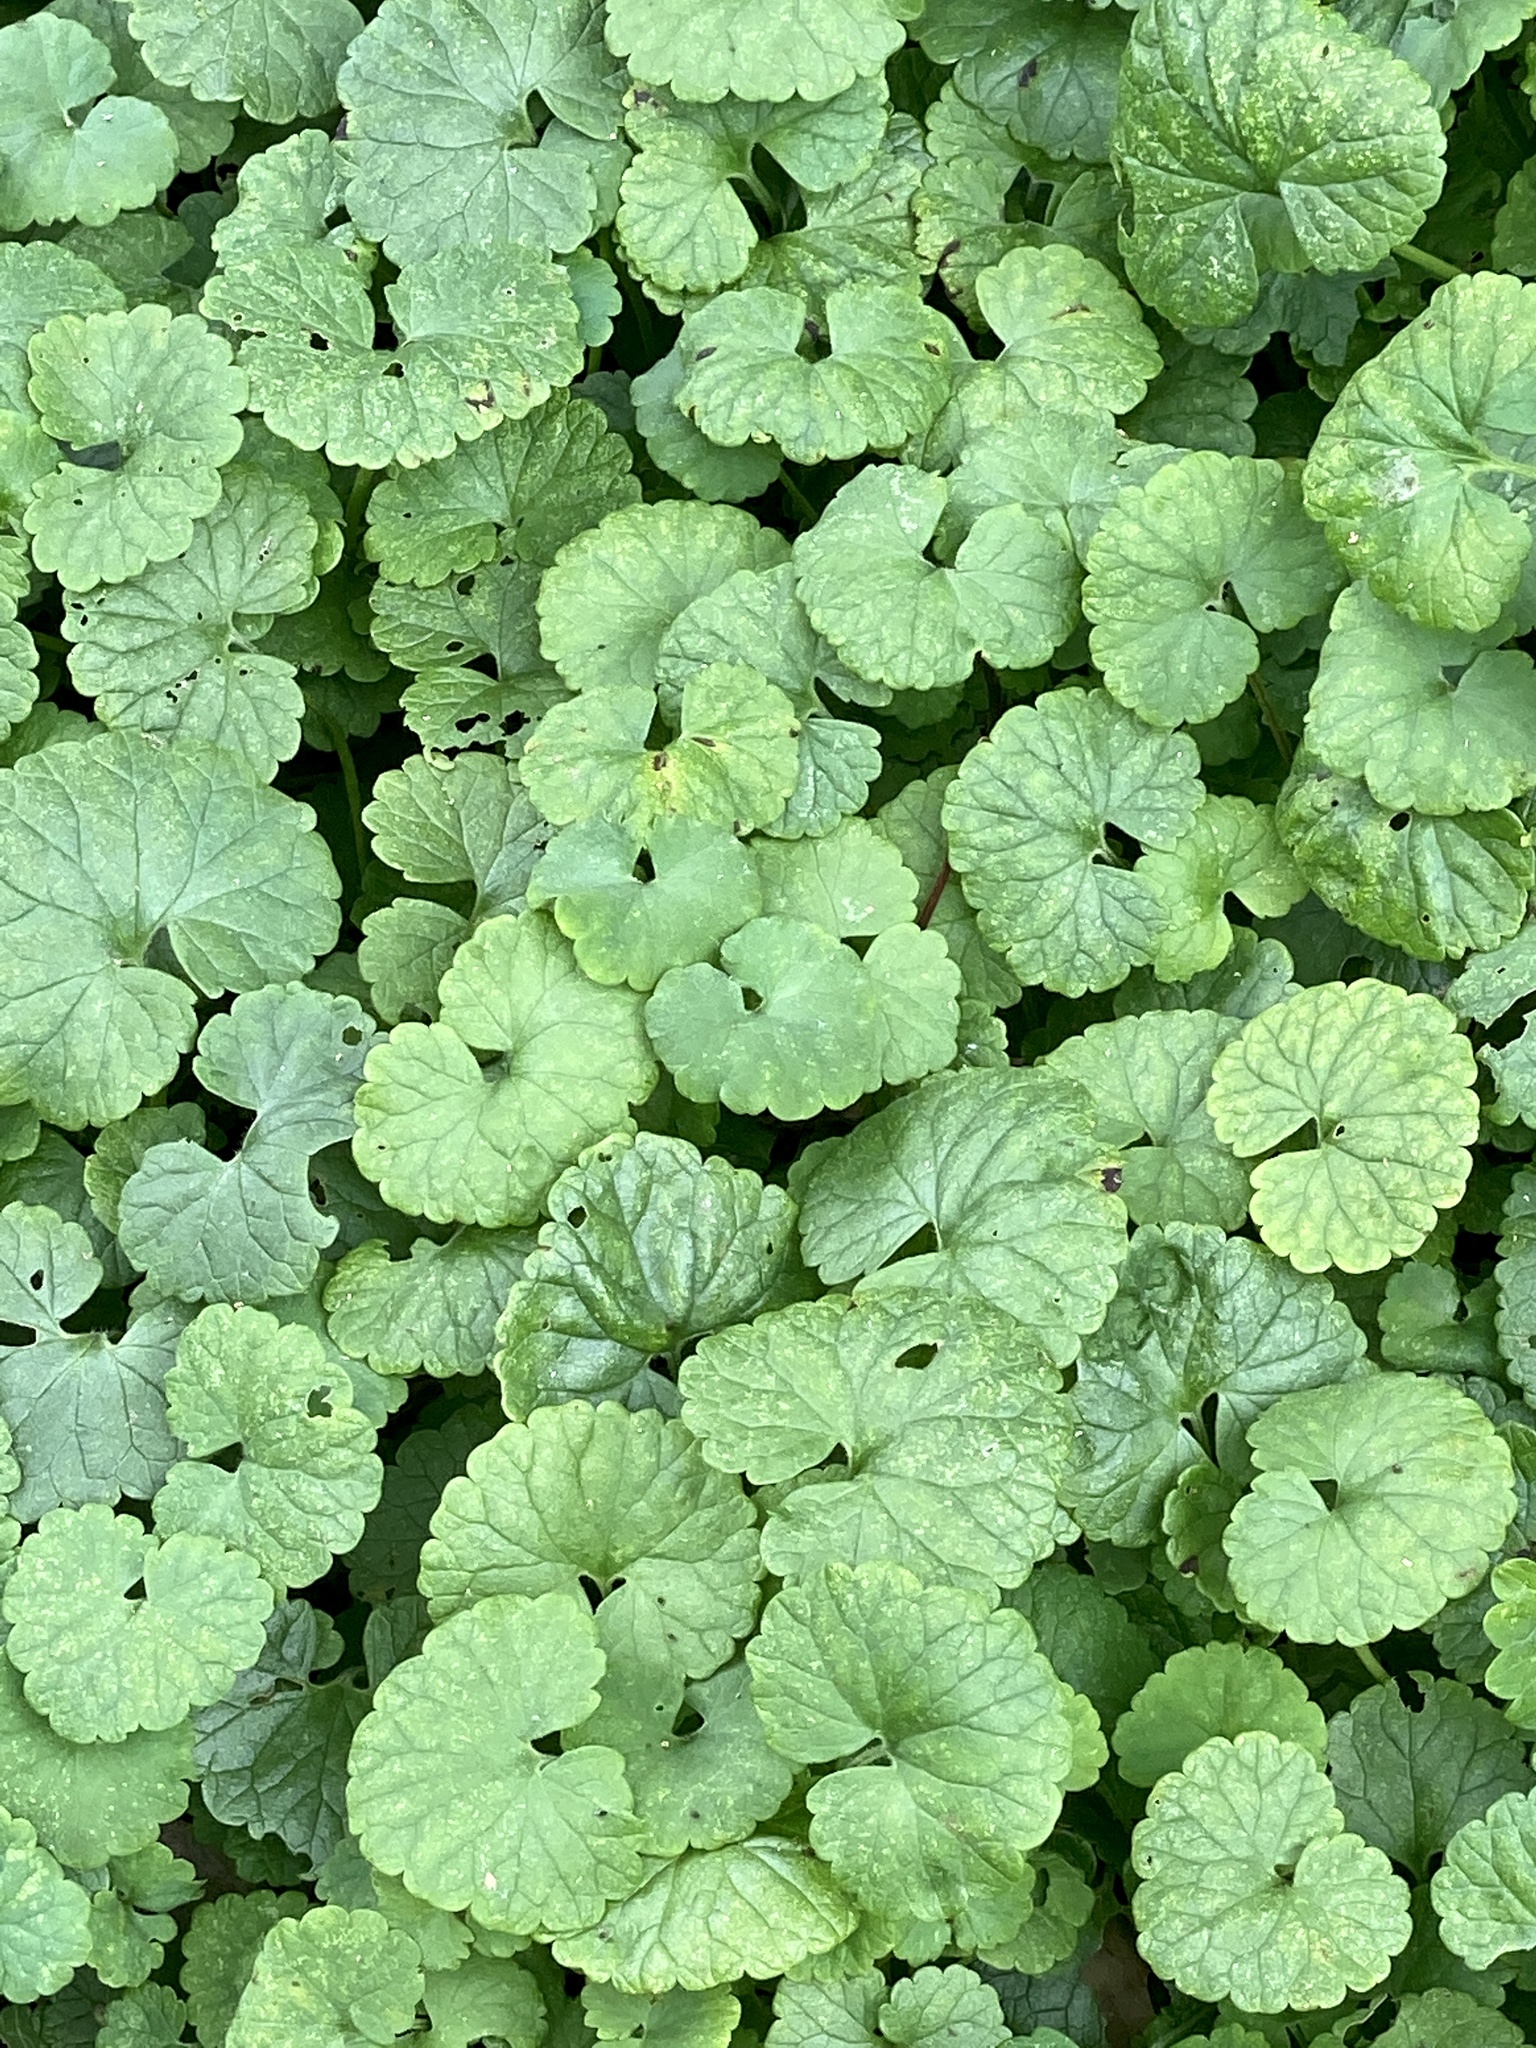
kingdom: Plantae
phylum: Tracheophyta
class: Magnoliopsida
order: Lamiales
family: Lamiaceae
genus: Glechoma
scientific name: Glechoma hederacea
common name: Ground ivy
